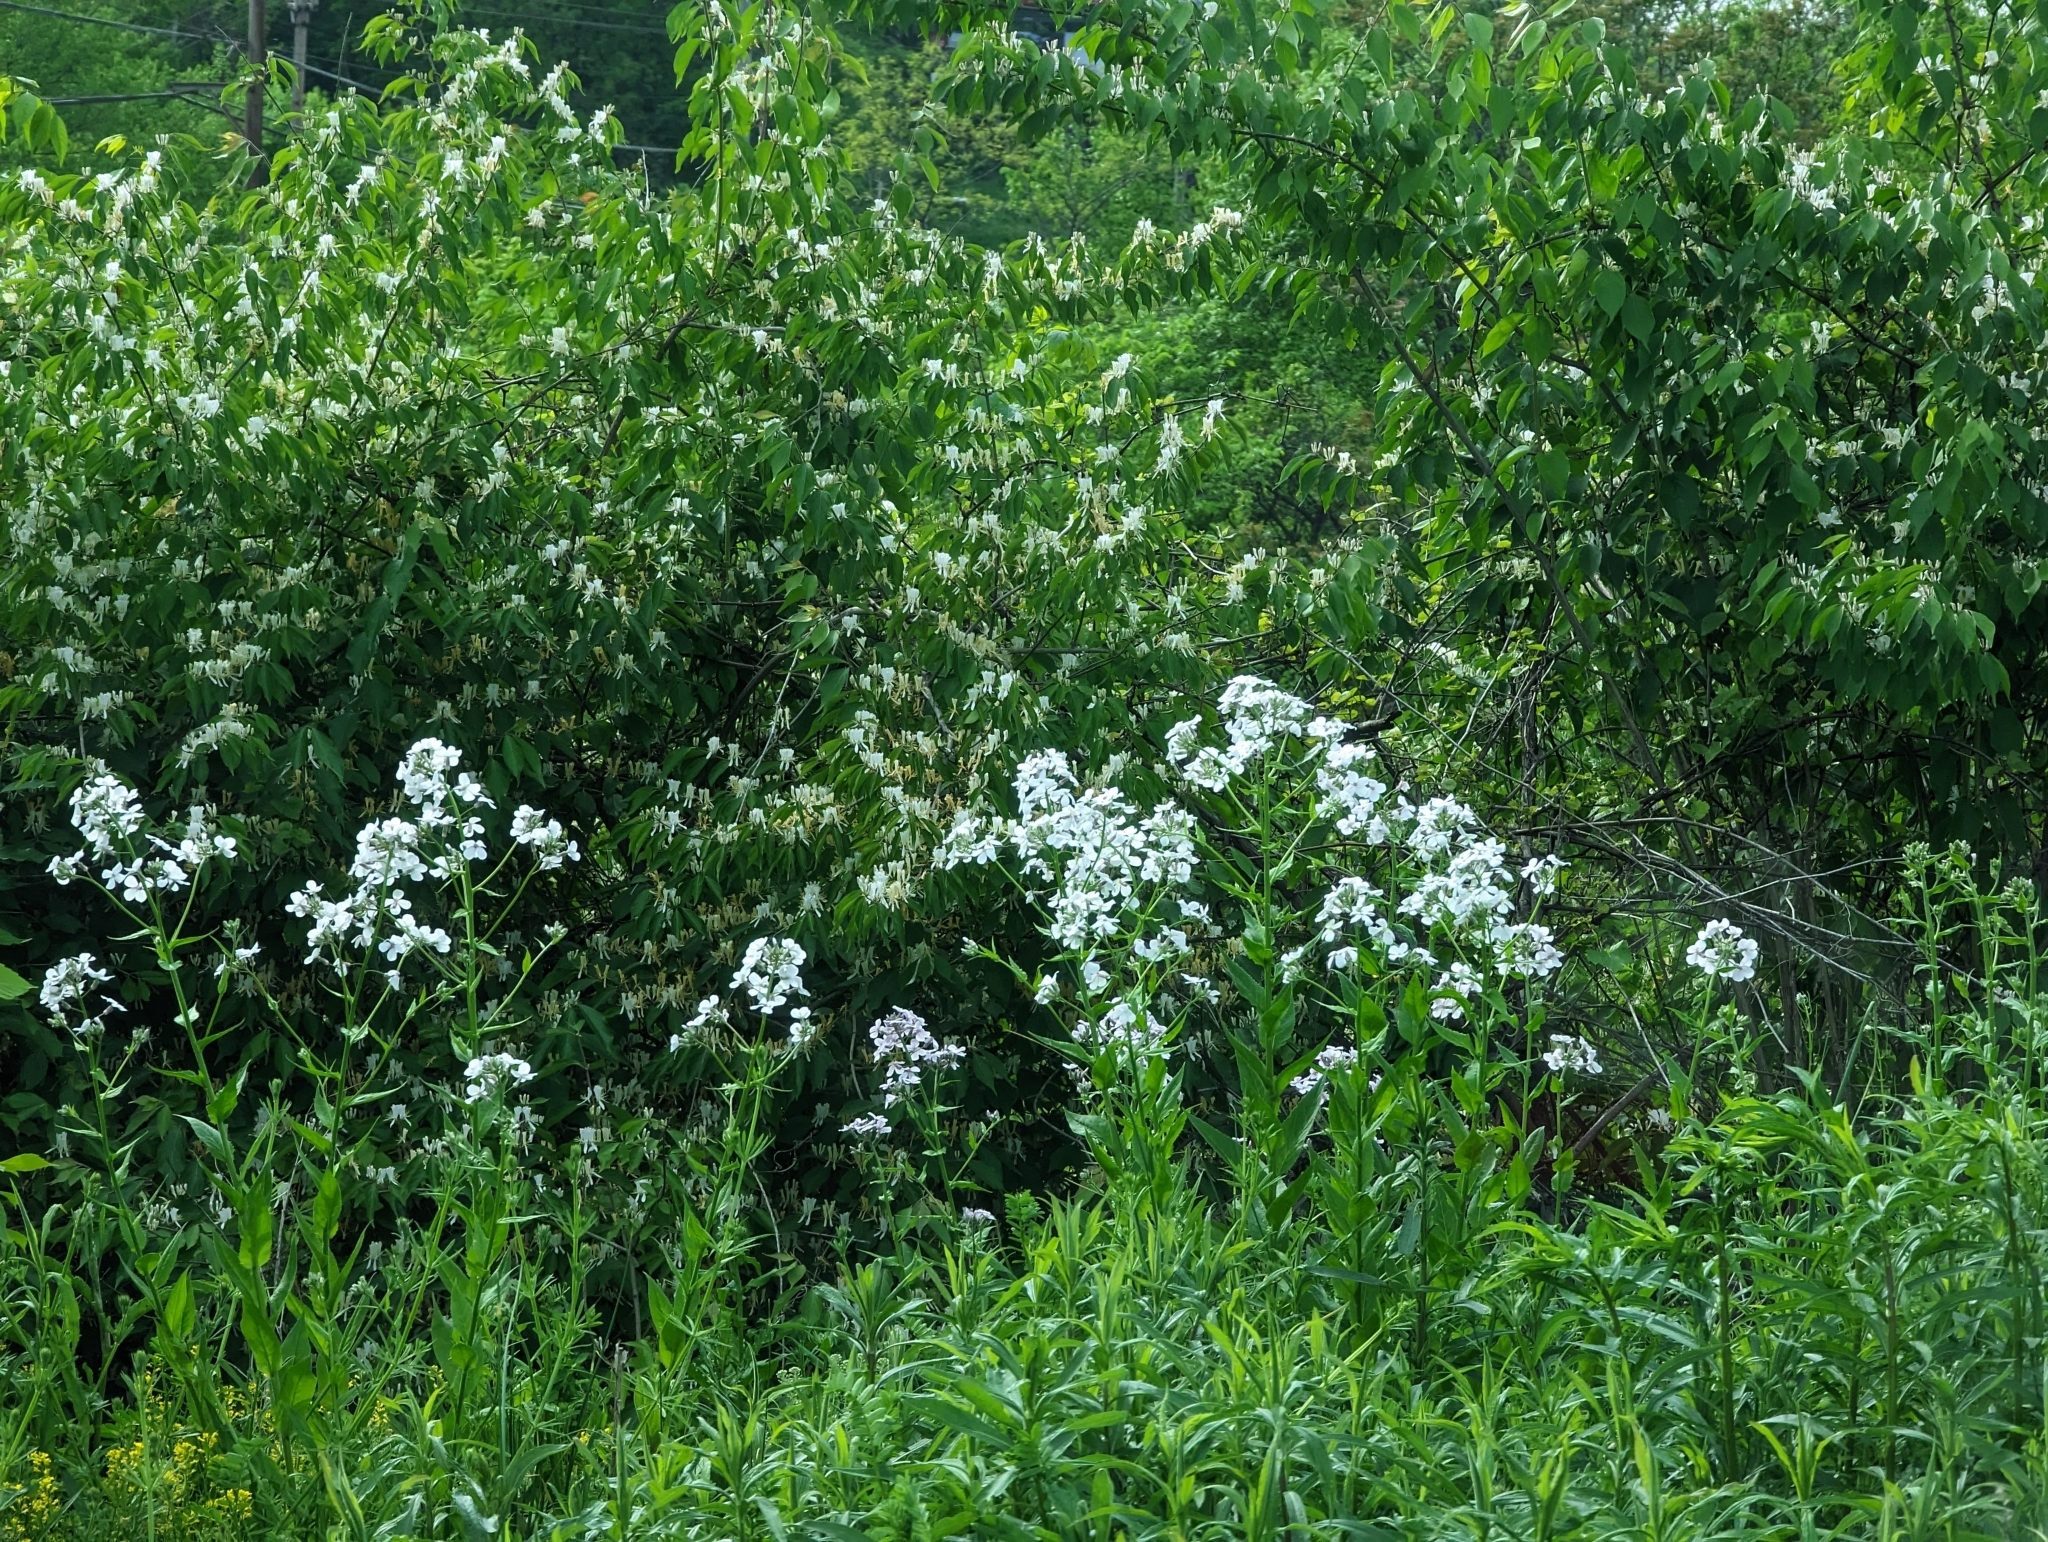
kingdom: Plantae
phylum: Tracheophyta
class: Magnoliopsida
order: Brassicales
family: Brassicaceae
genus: Hesperis
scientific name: Hesperis matronalis
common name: Dame's-violet
